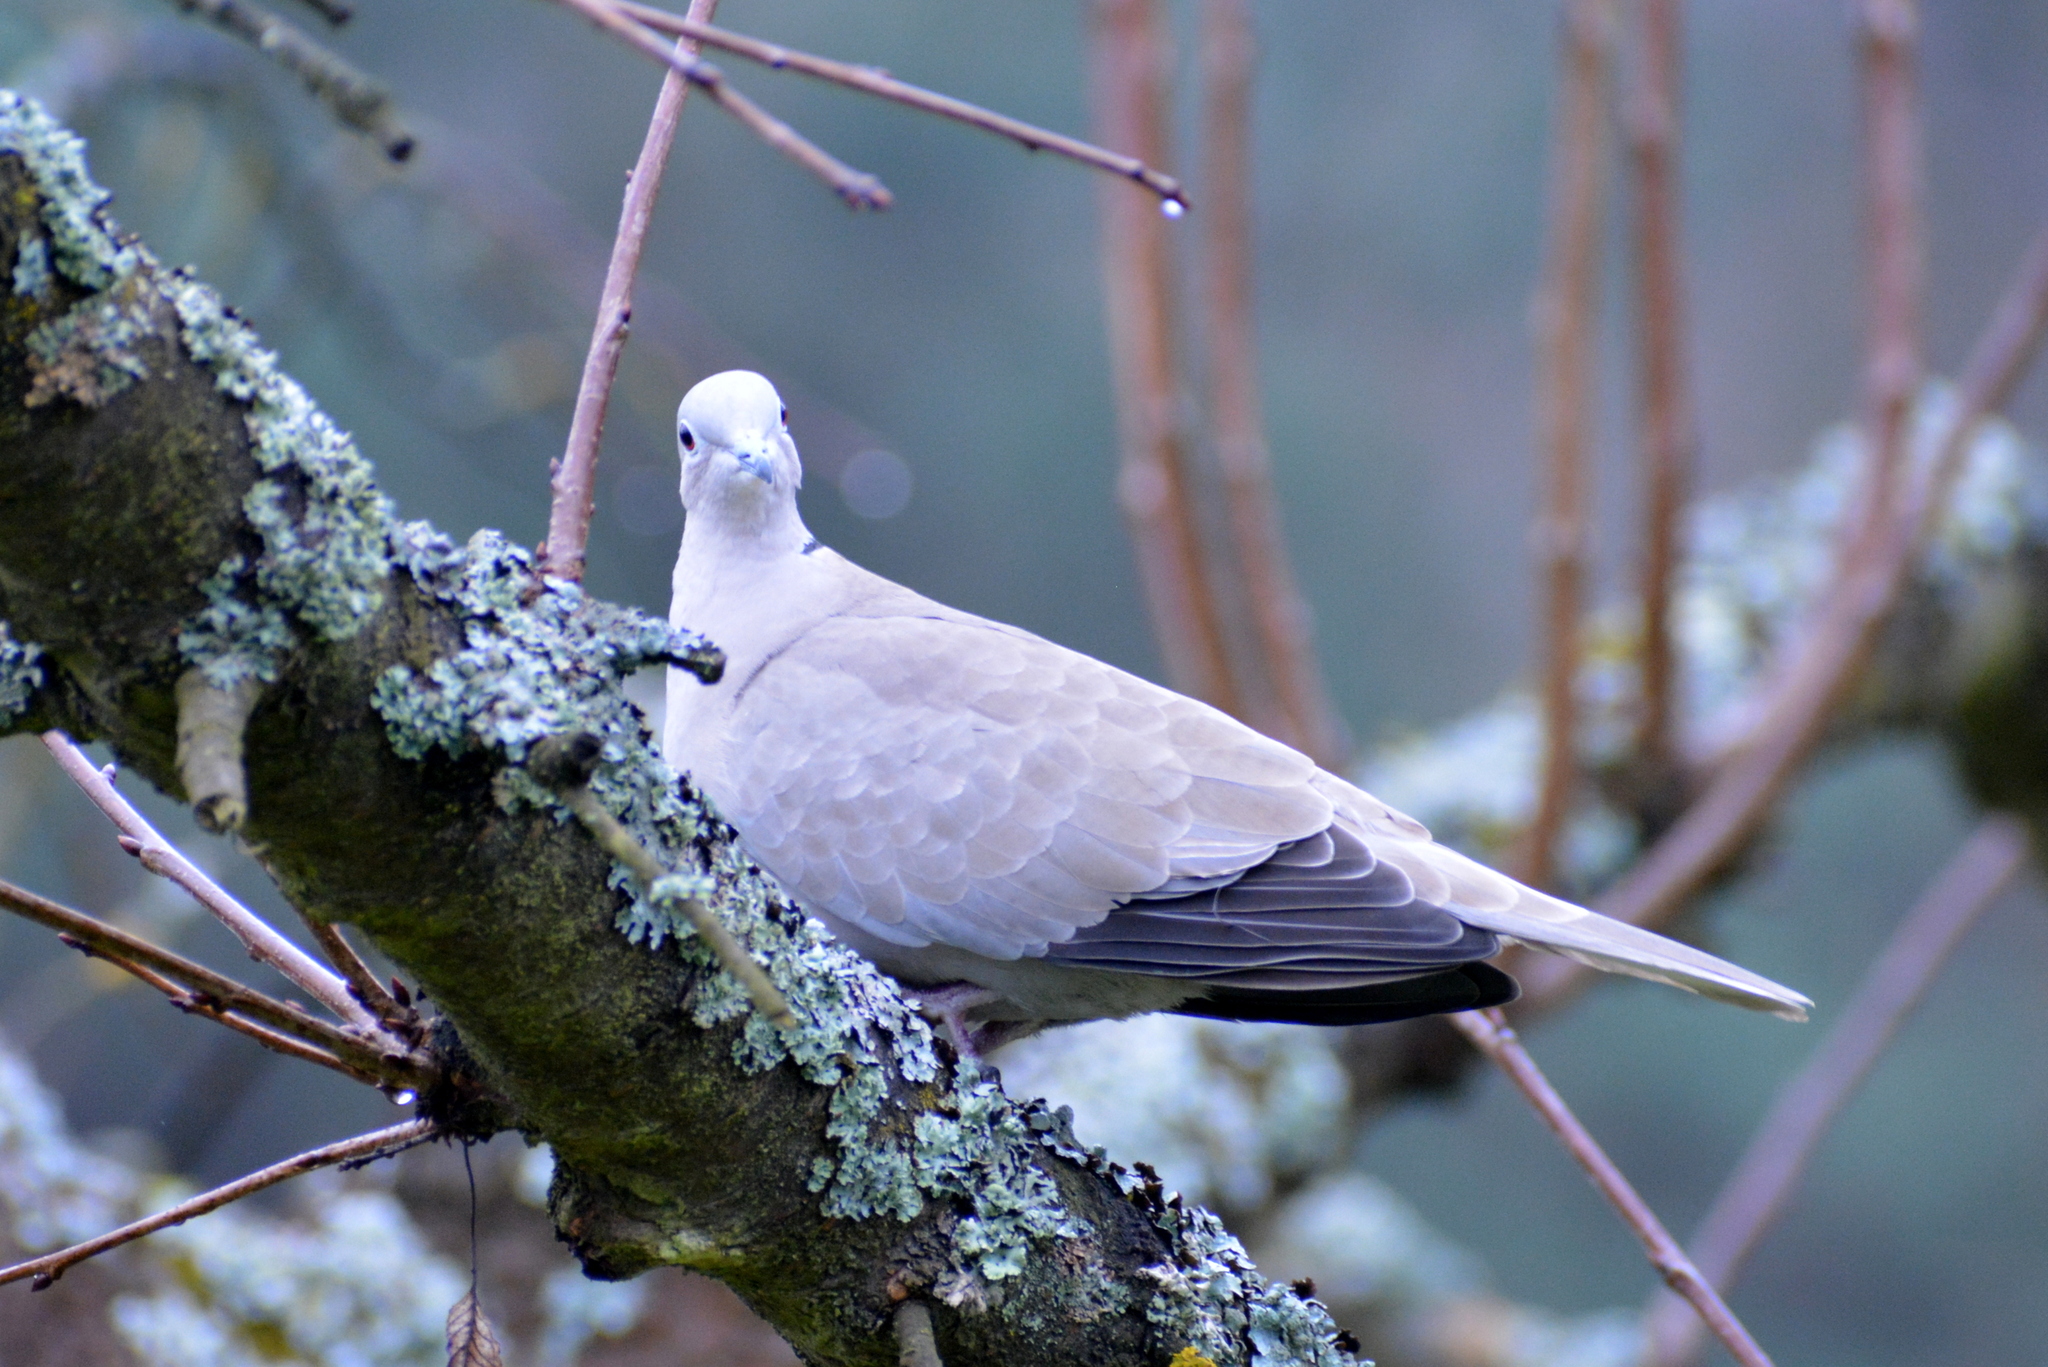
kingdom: Animalia
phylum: Chordata
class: Aves
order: Columbiformes
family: Columbidae
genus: Streptopelia
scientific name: Streptopelia decaocto
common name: Eurasian collared dove
